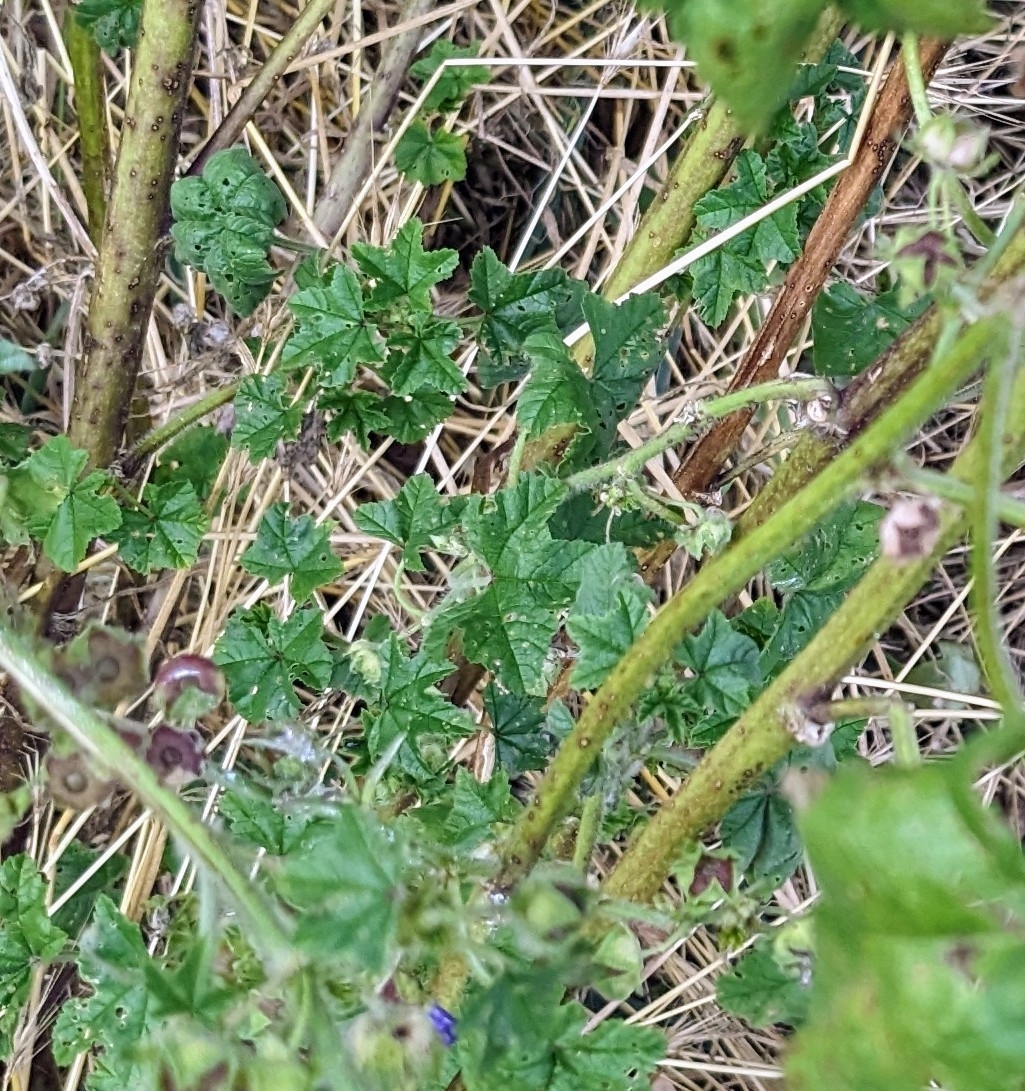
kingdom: Plantae
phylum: Tracheophyta
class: Magnoliopsida
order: Malvales
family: Malvaceae
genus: Malva
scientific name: Malva sylvestris
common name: Common mallow
